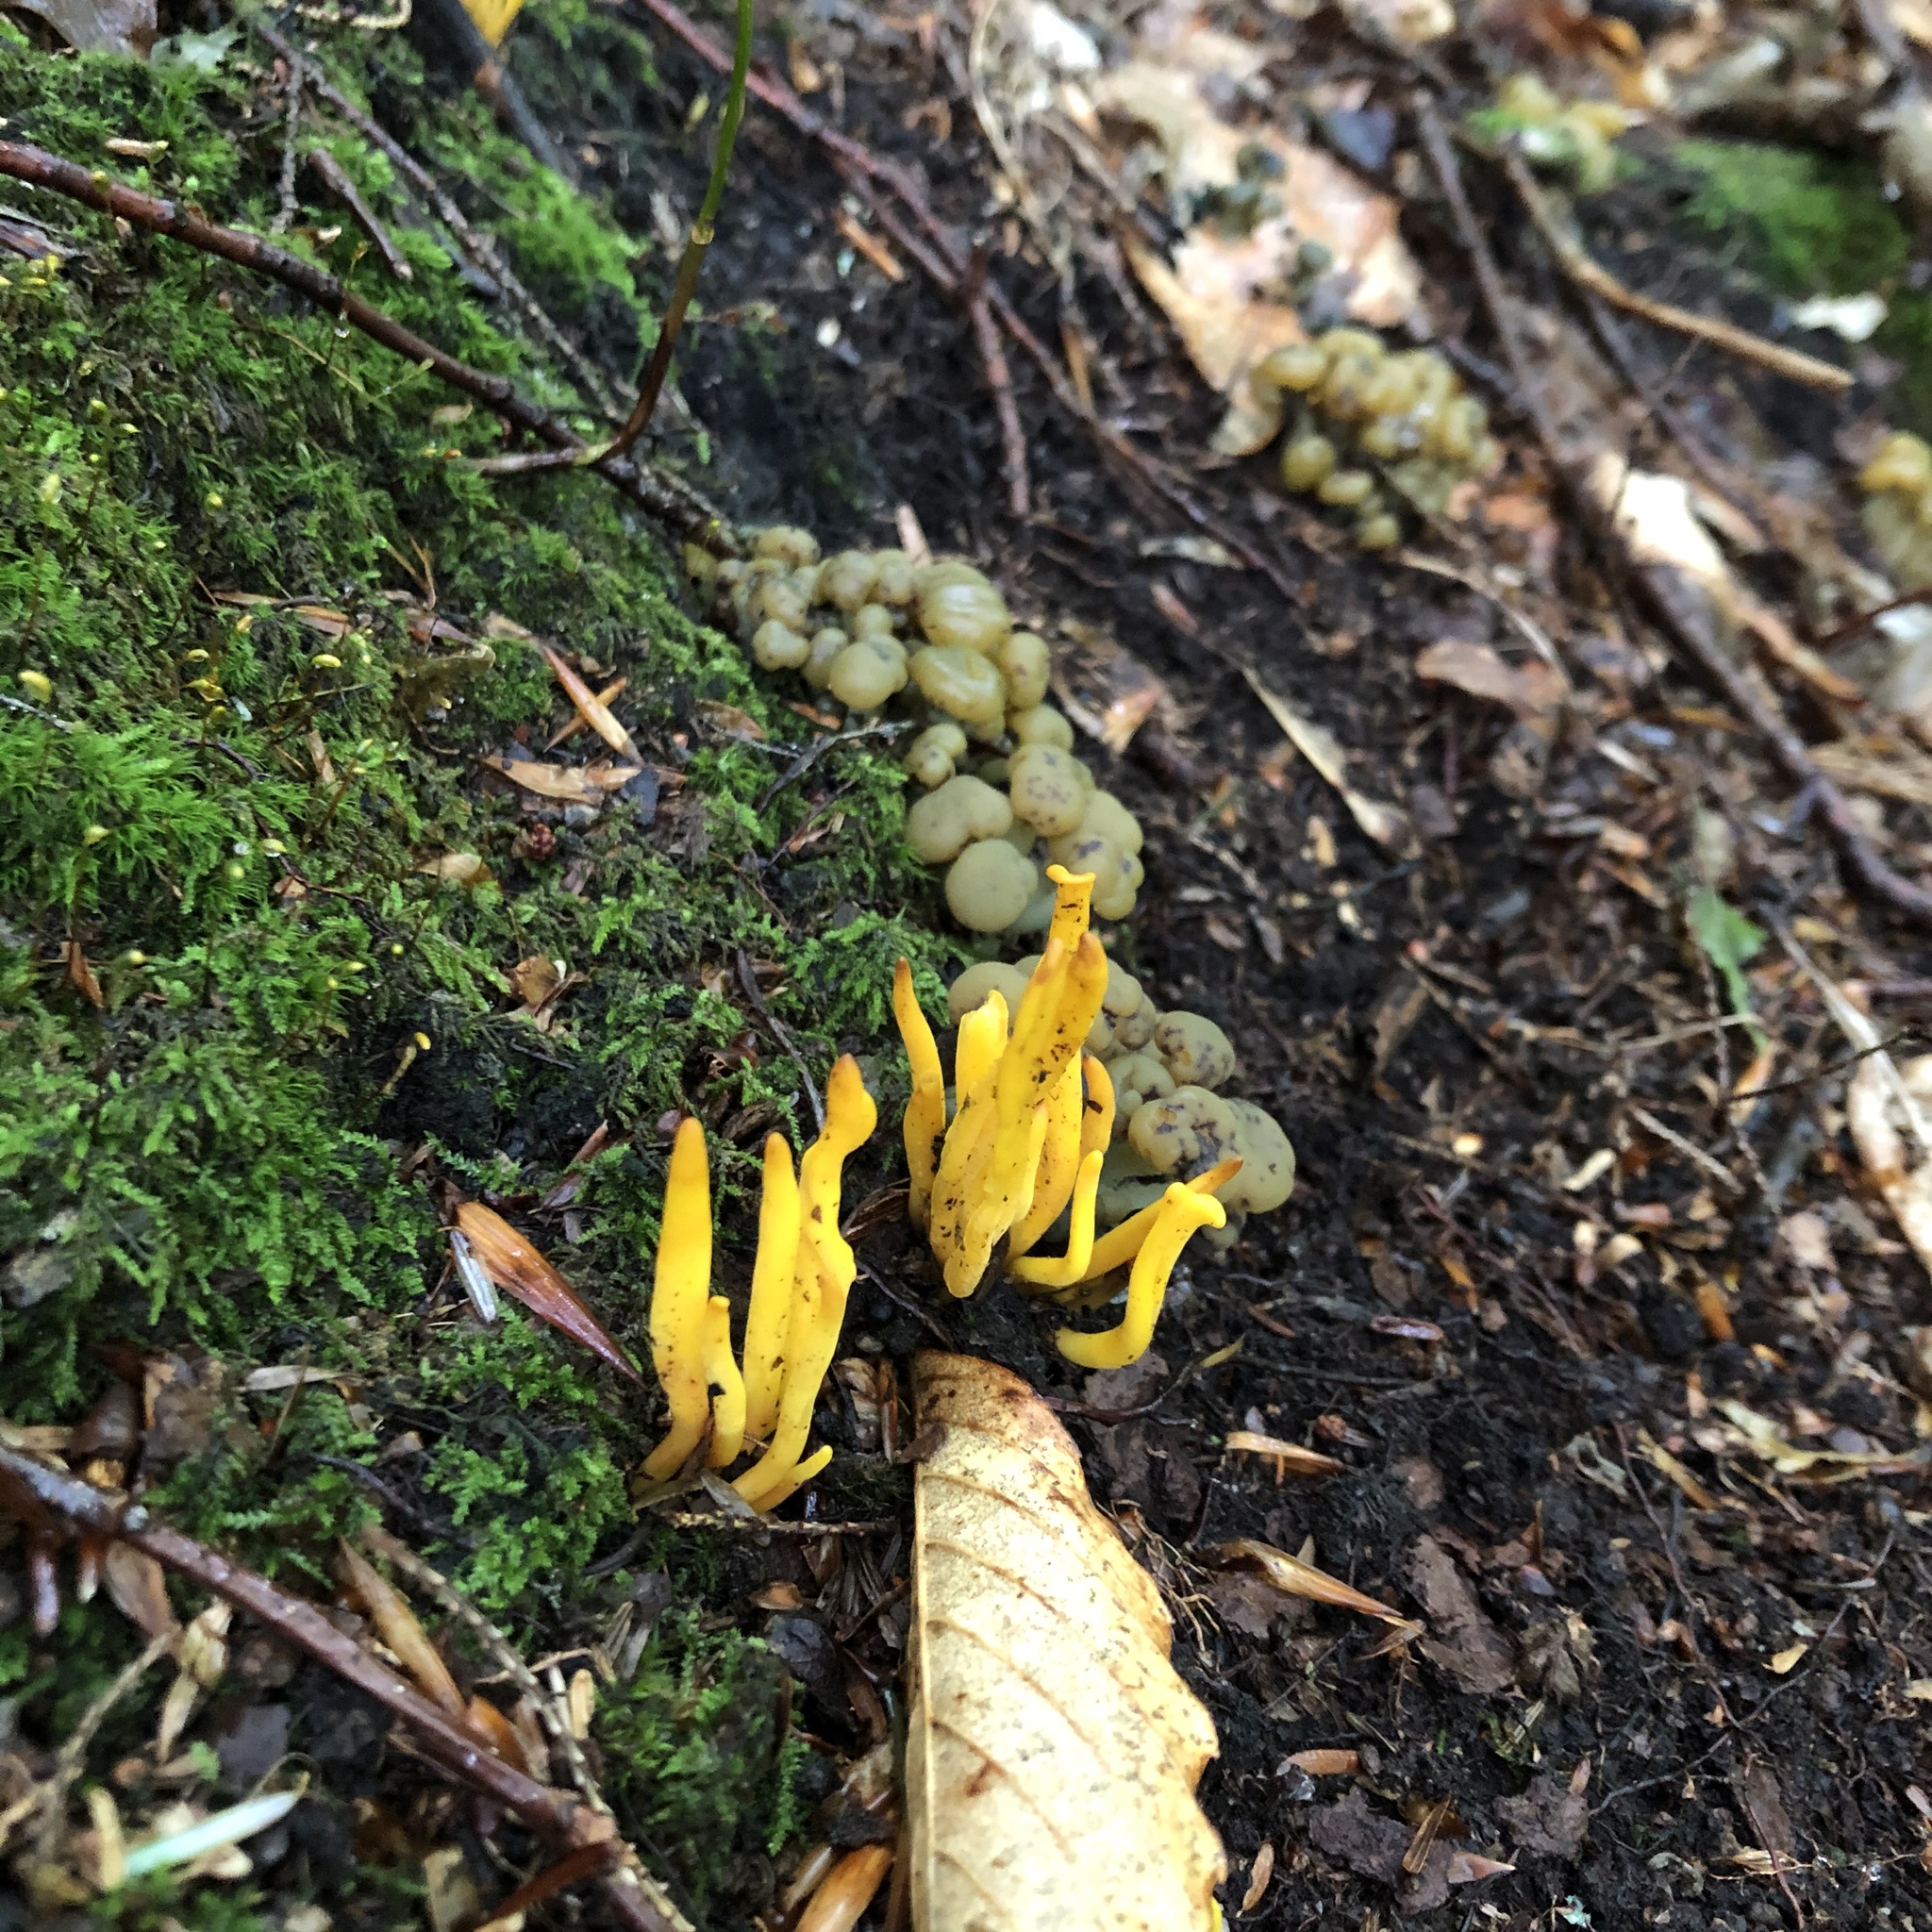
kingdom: Fungi
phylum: Basidiomycota
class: Agaricomycetes
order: Agaricales
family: Clavariaceae
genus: Clavulinopsis
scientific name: Clavulinopsis fusiformis
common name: Golden spindles
